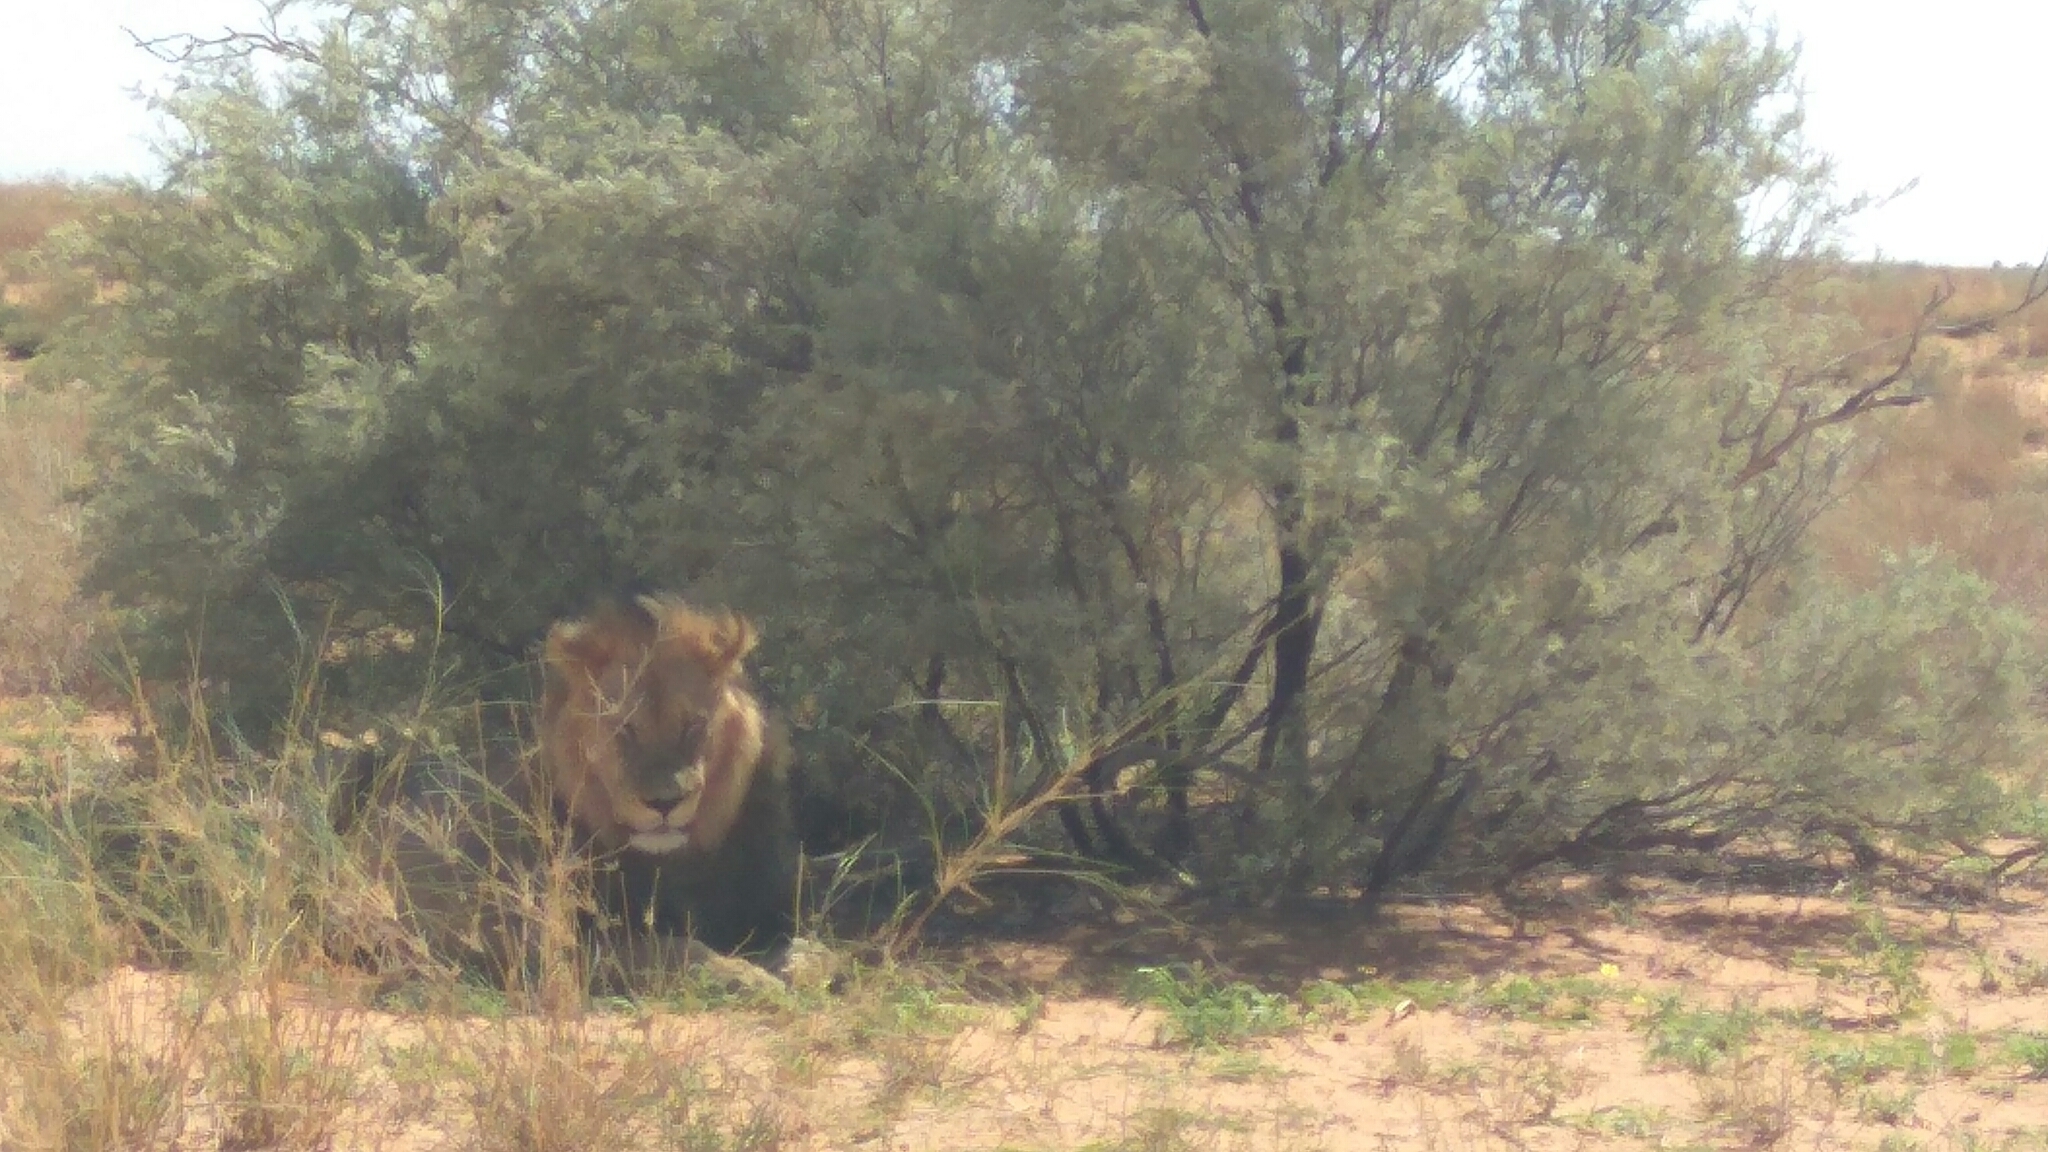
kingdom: Animalia
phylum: Chordata
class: Mammalia
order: Carnivora
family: Felidae
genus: Panthera
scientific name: Panthera leo
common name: Lion
